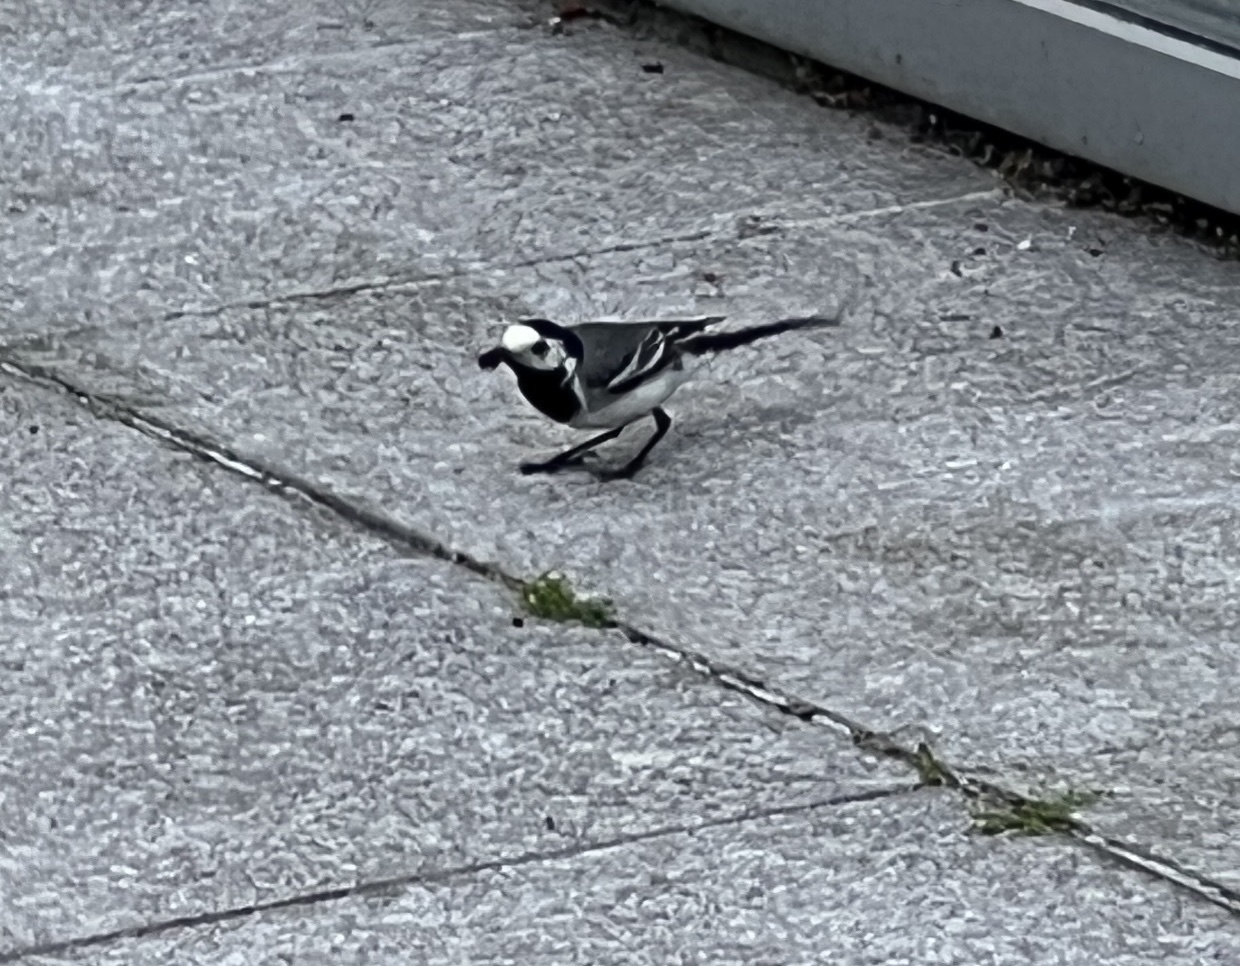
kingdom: Animalia
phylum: Chordata
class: Aves
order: Passeriformes
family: Motacillidae
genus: Motacilla
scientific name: Motacilla alba
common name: White wagtail
